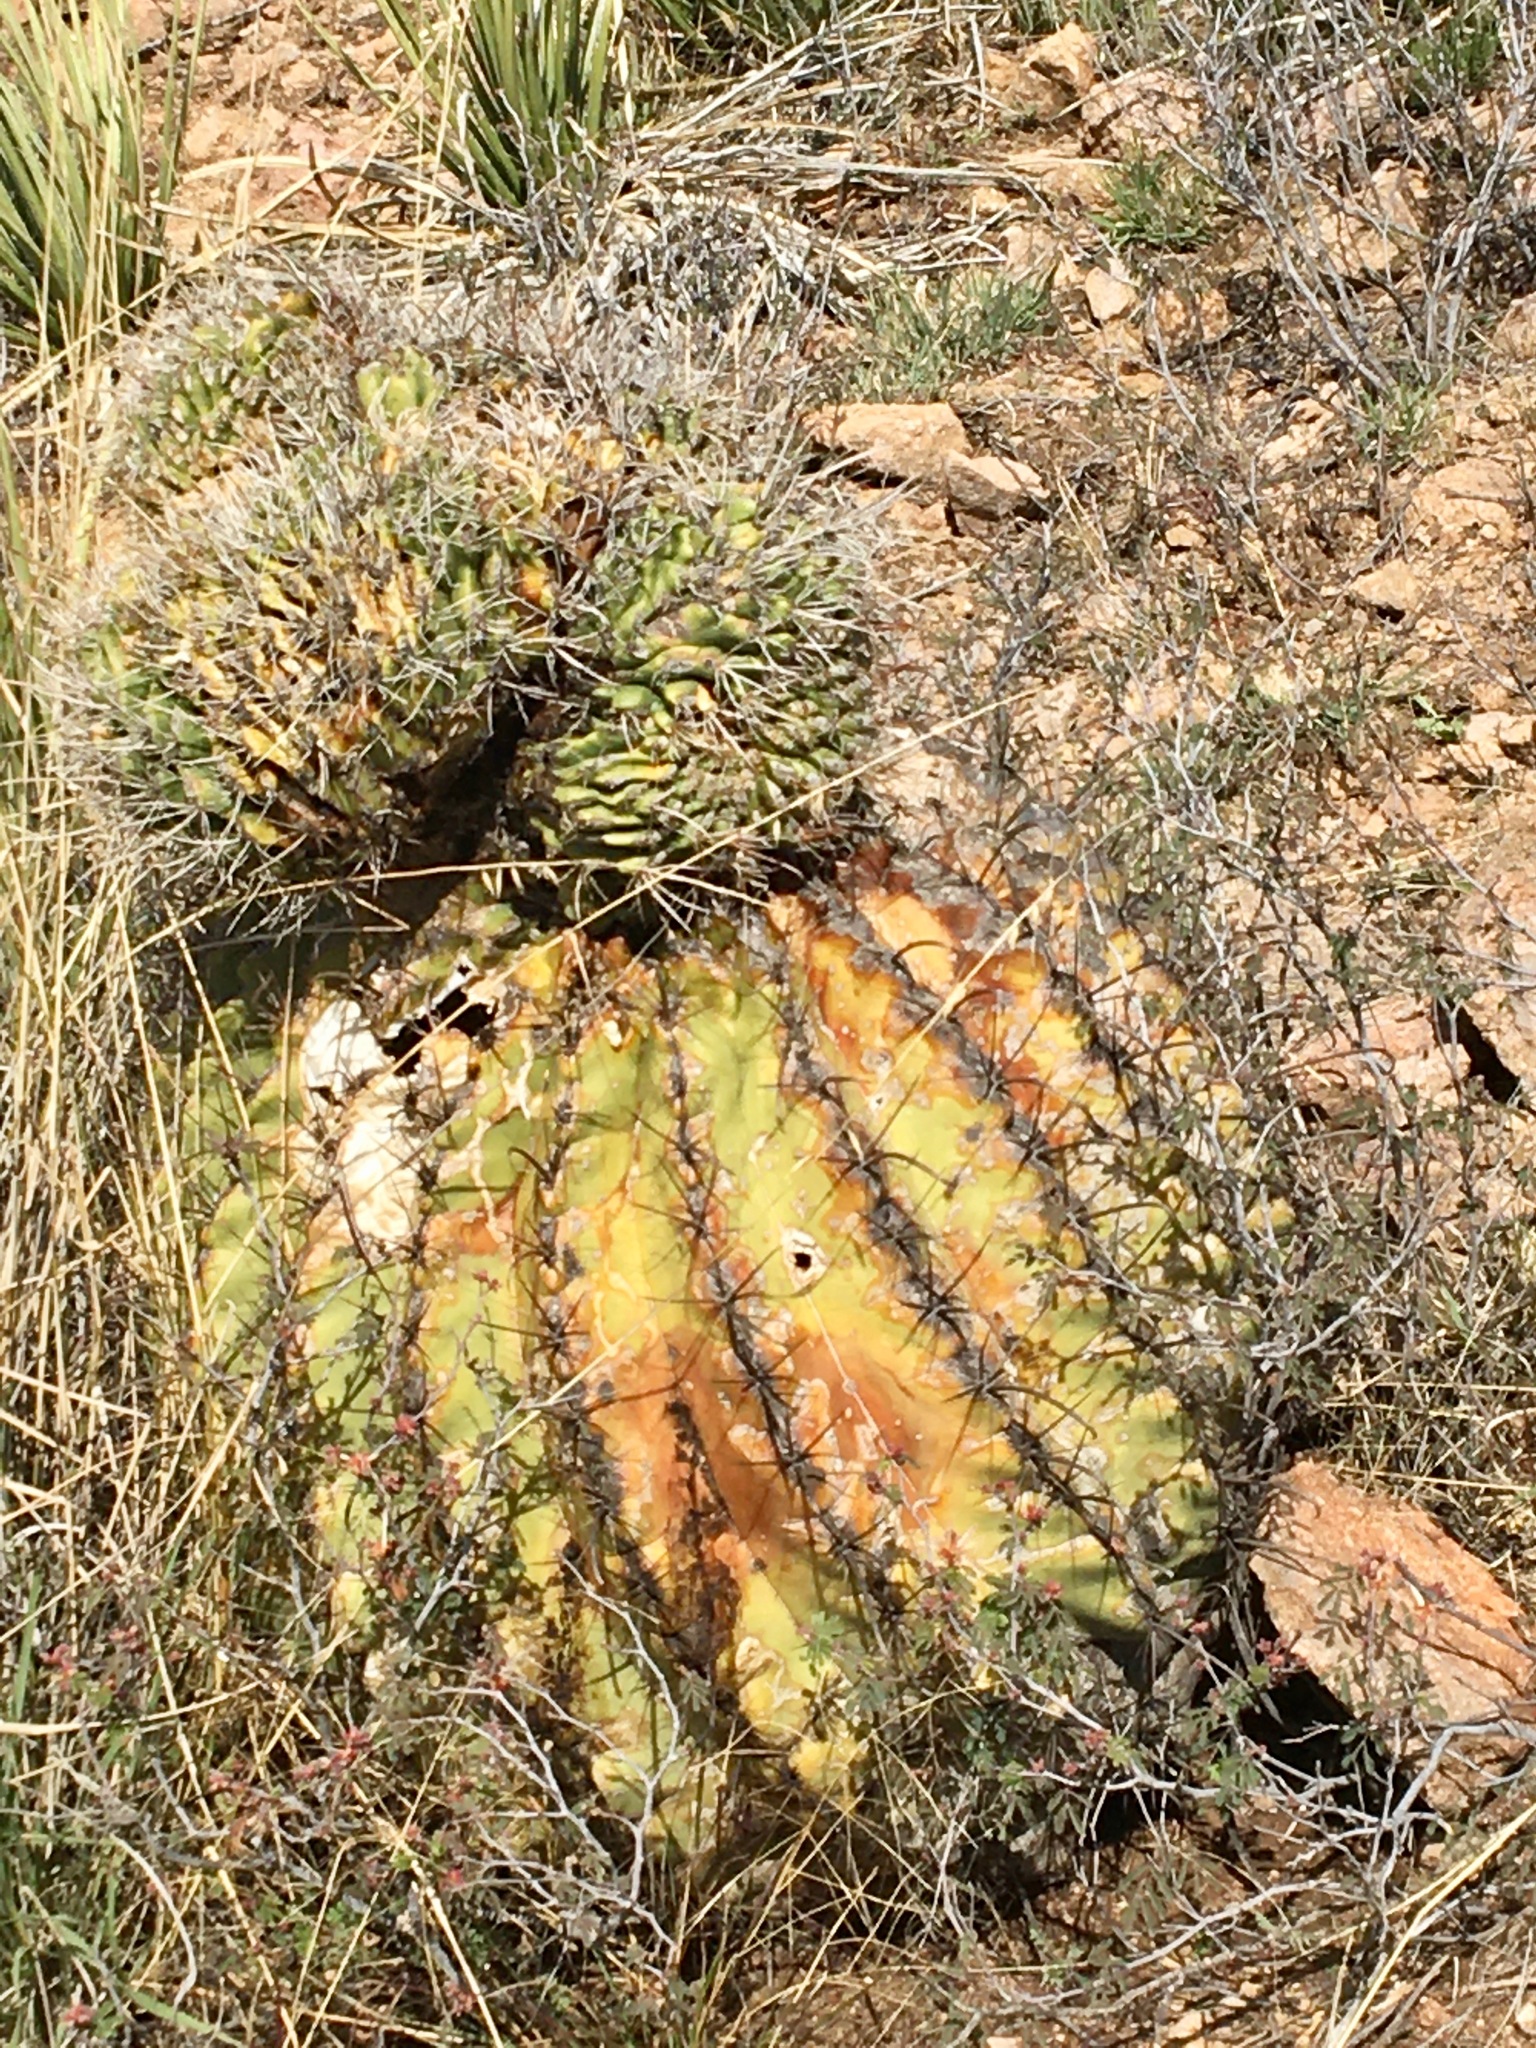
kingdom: Plantae
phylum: Tracheophyta
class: Magnoliopsida
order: Caryophyllales
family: Cactaceae
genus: Ferocactus
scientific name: Ferocactus wislizeni
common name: Candy barrel cactus
